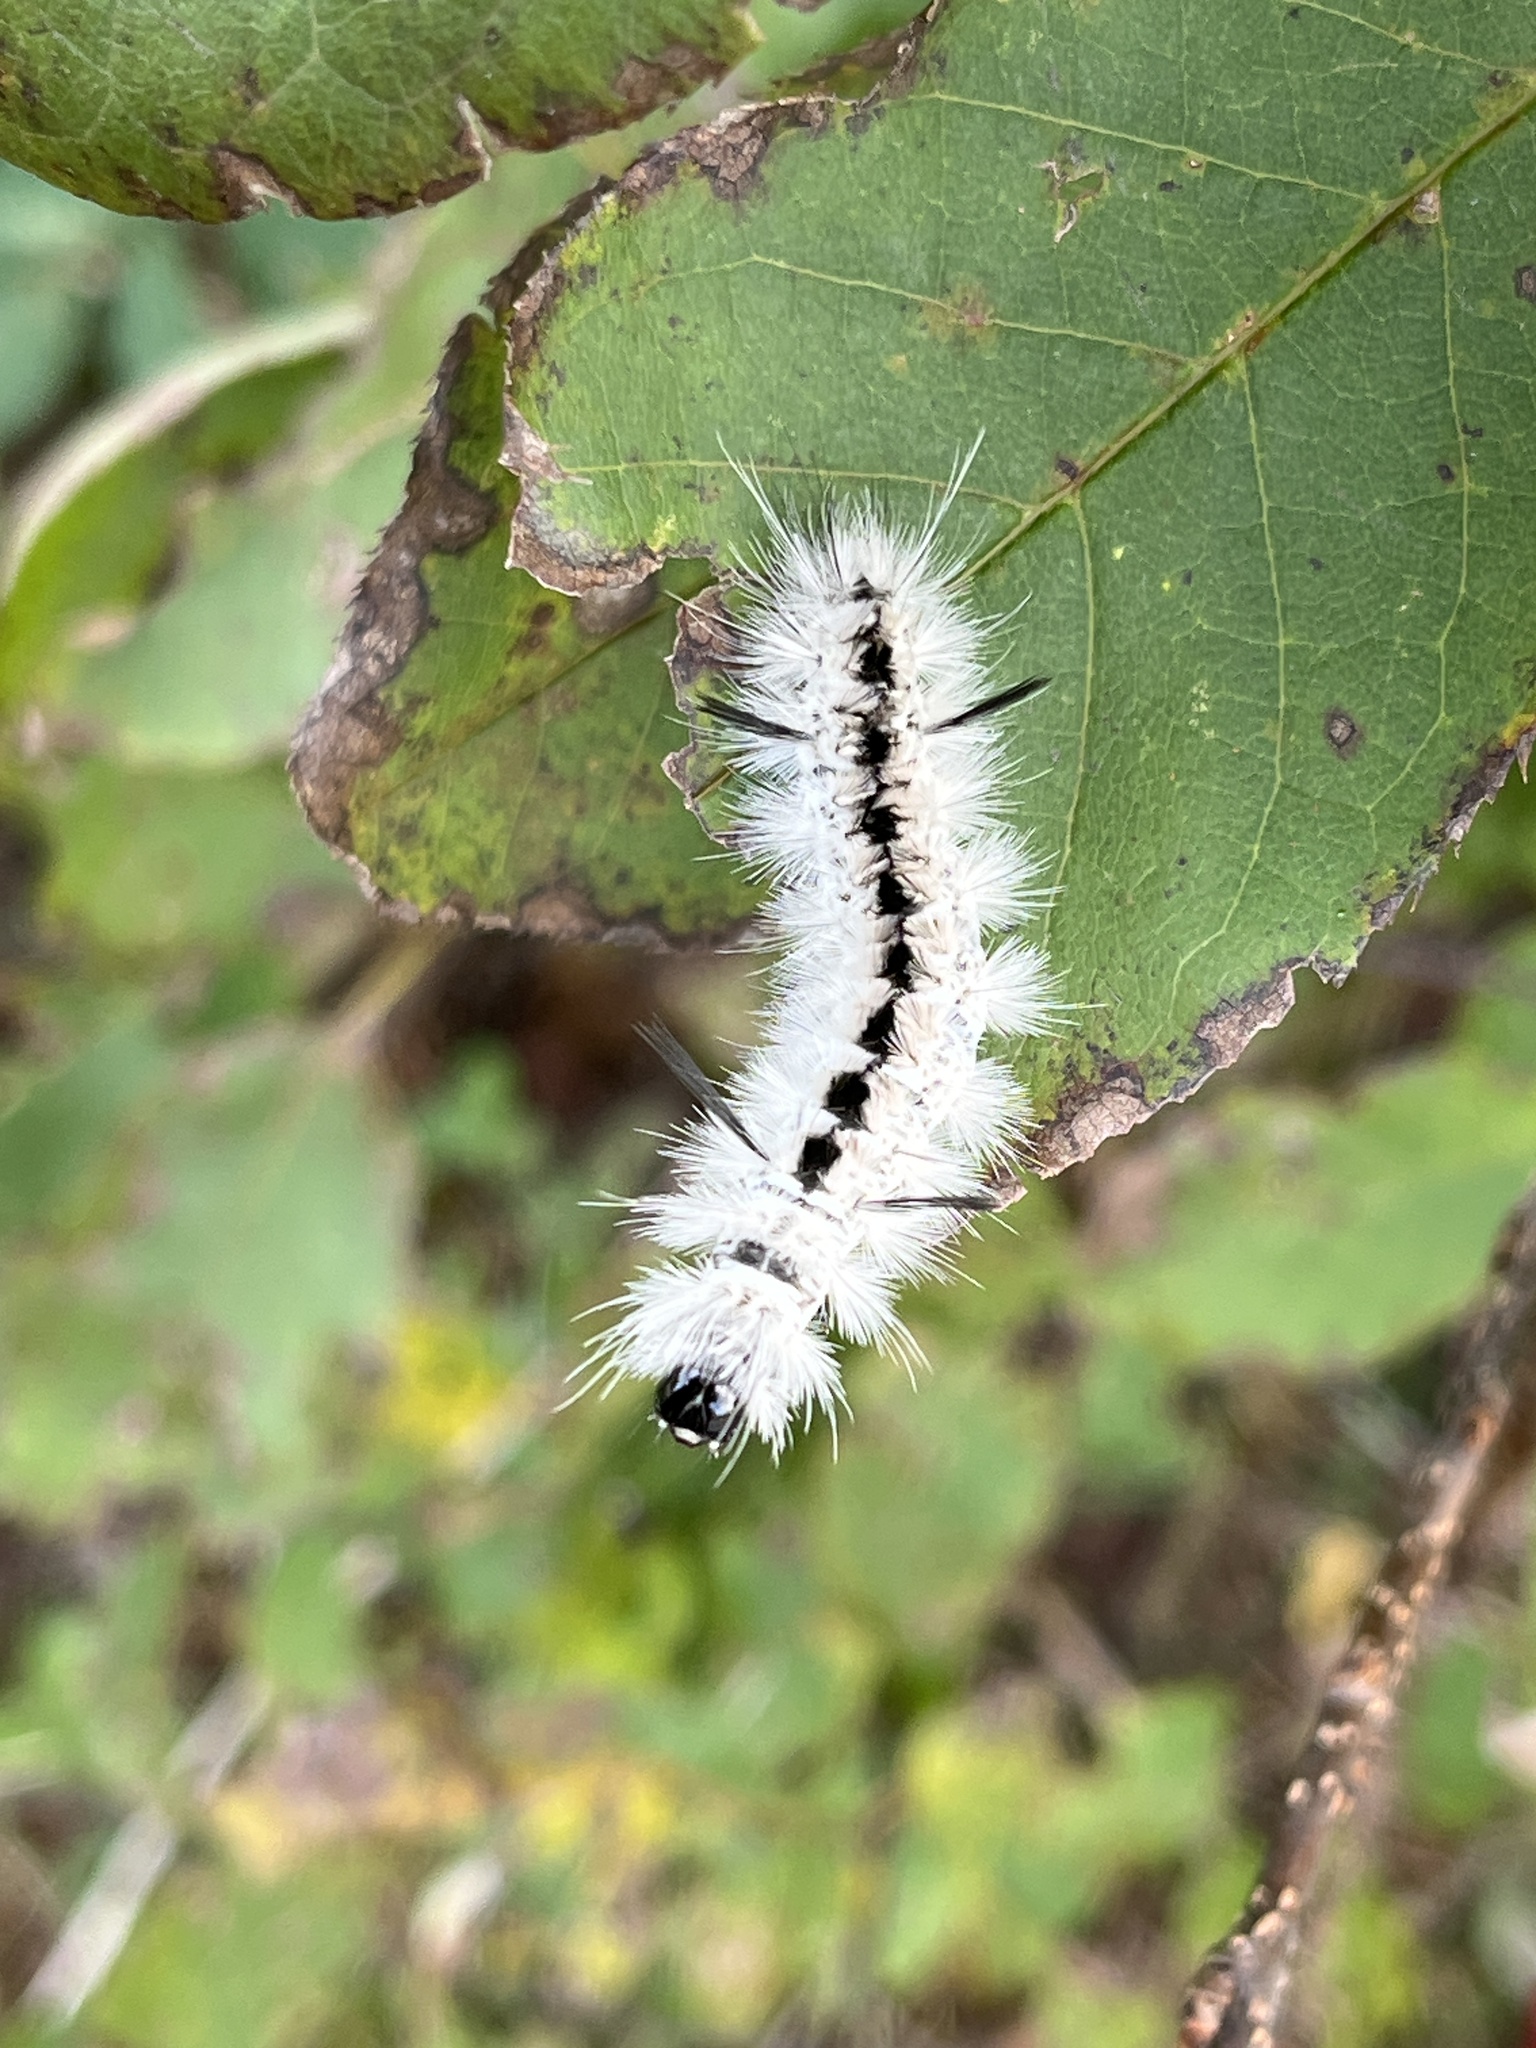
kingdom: Animalia
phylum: Arthropoda
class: Insecta
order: Lepidoptera
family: Erebidae
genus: Lophocampa
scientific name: Lophocampa caryae
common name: Hickory tussock moth
